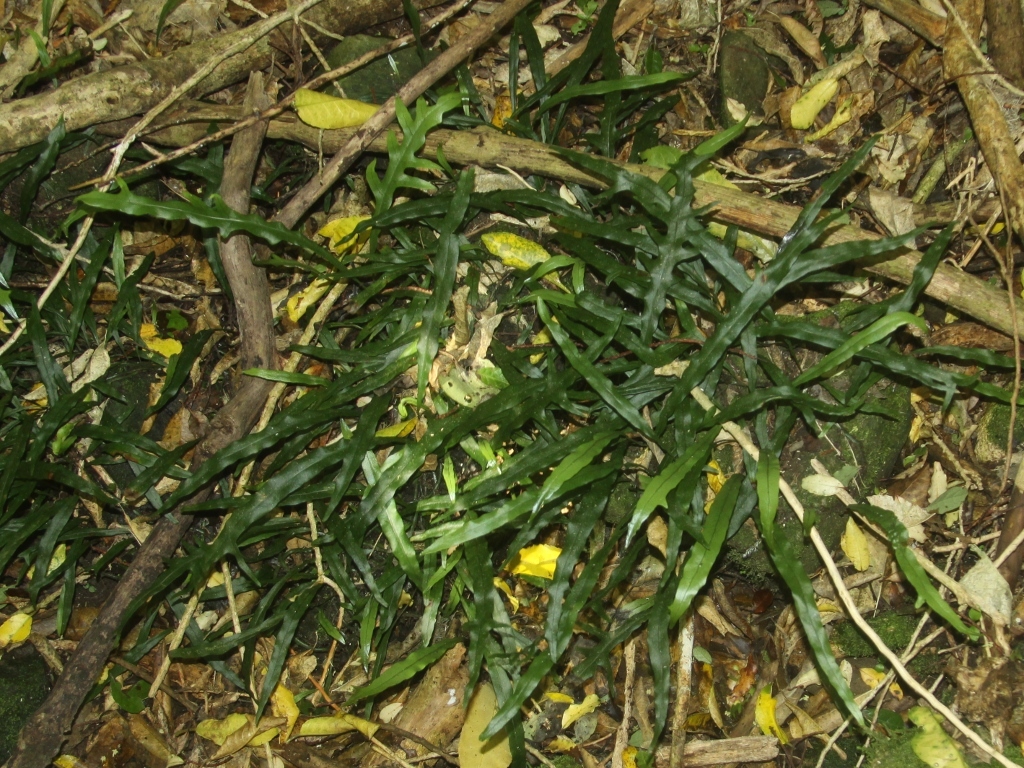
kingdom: Plantae
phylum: Tracheophyta
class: Polypodiopsida
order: Polypodiales
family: Polypodiaceae
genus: Lecanopteris
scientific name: Lecanopteris scandens
